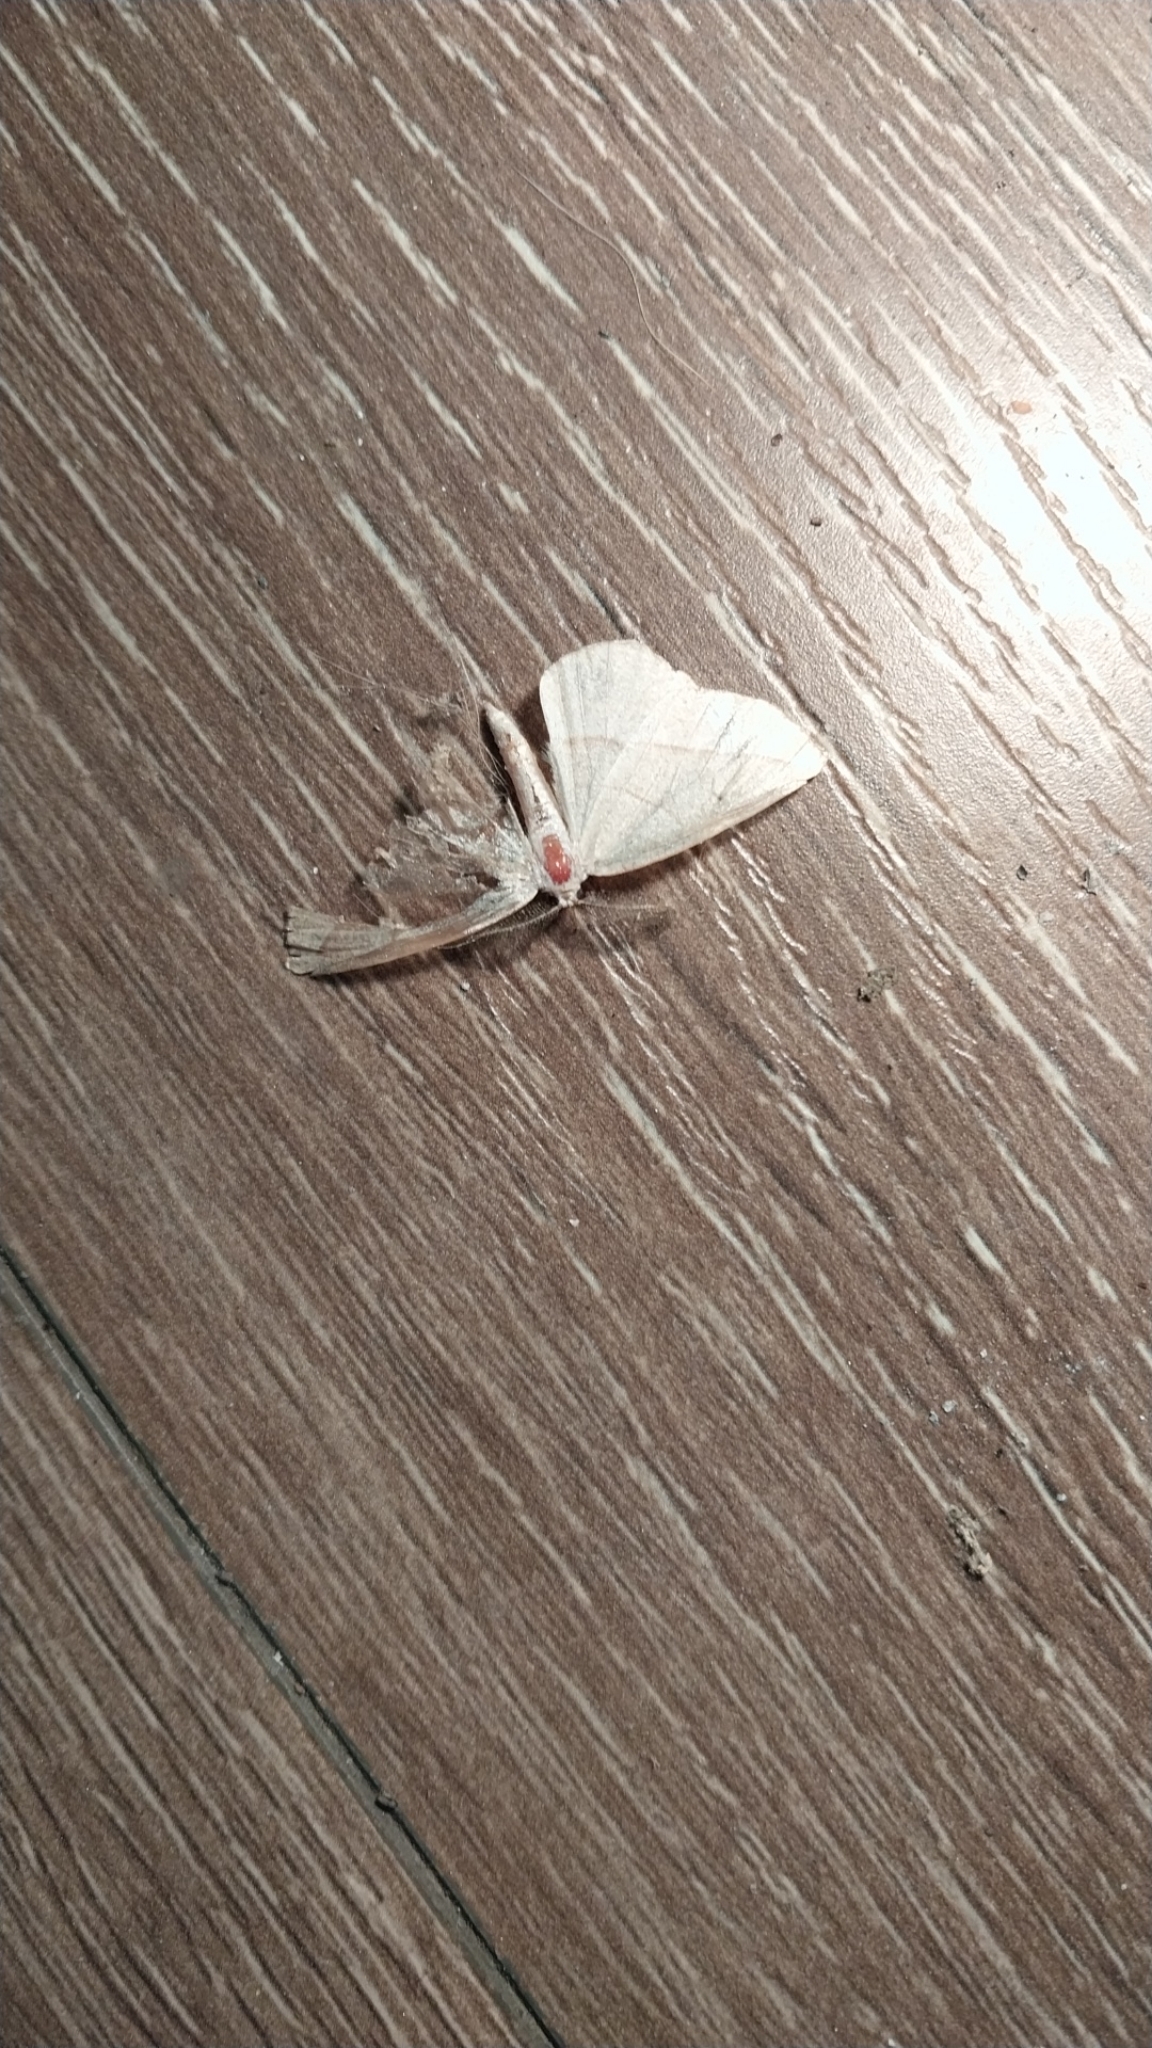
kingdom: Animalia
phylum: Arthropoda
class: Insecta
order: Lepidoptera
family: Geometridae
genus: Campaea
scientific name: Campaea perlata
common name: Fringed looper
